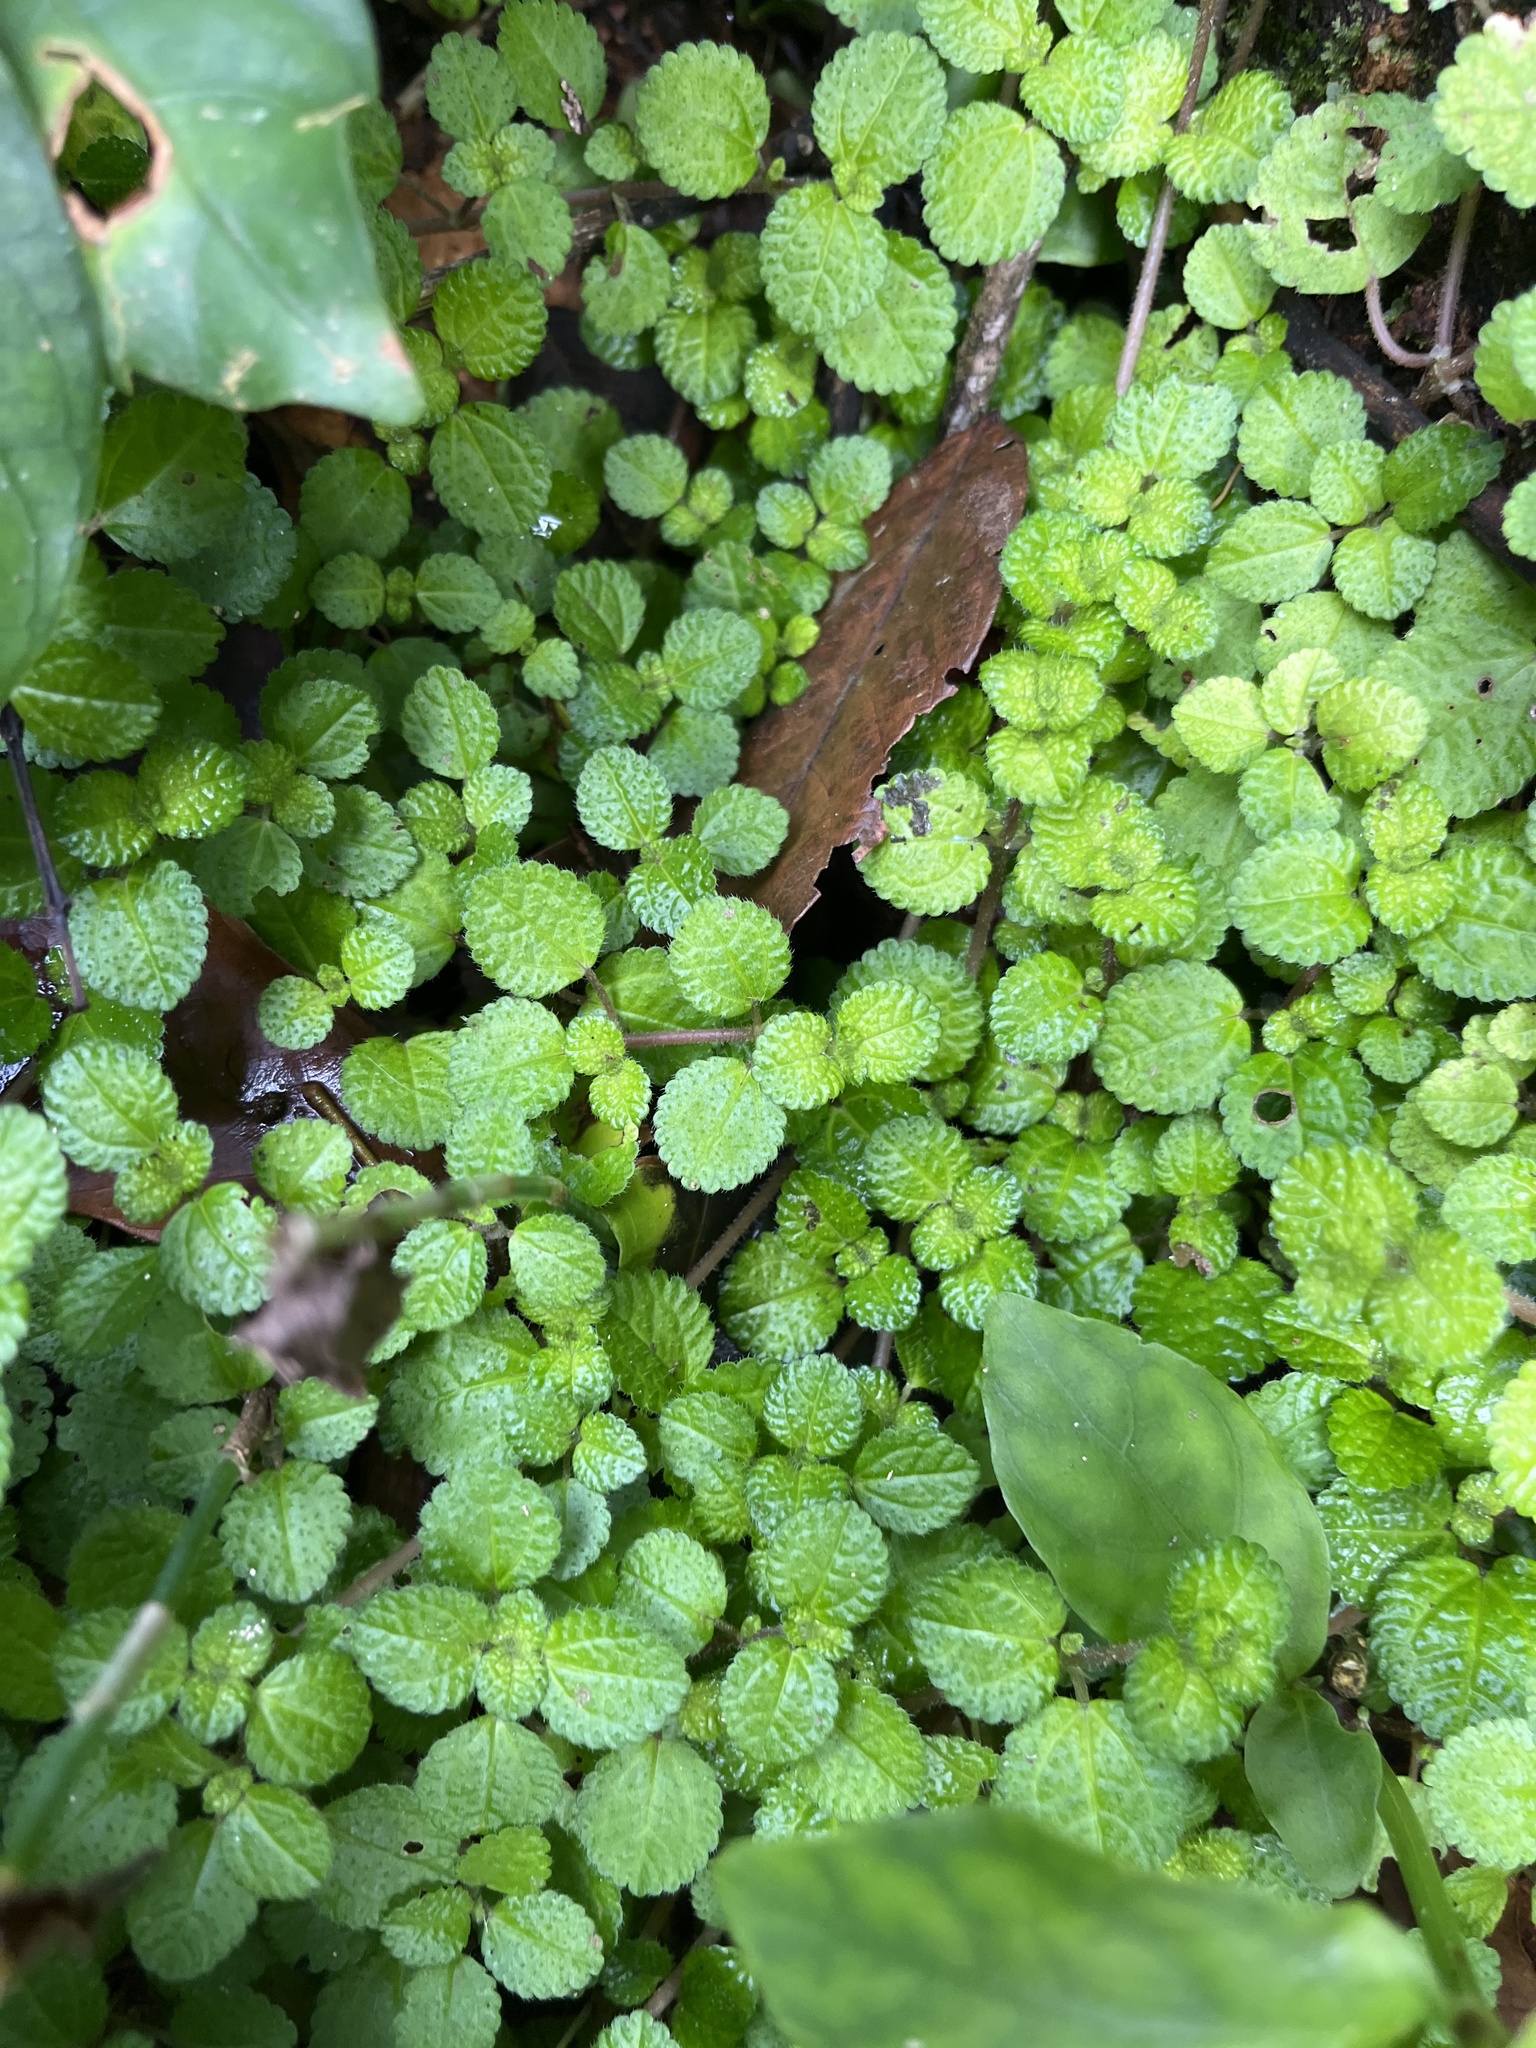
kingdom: Plantae
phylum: Tracheophyta
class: Magnoliopsida
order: Rosales
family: Urticaceae
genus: Pilea
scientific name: Pilea nummulariifolia
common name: Creeping-charlie
